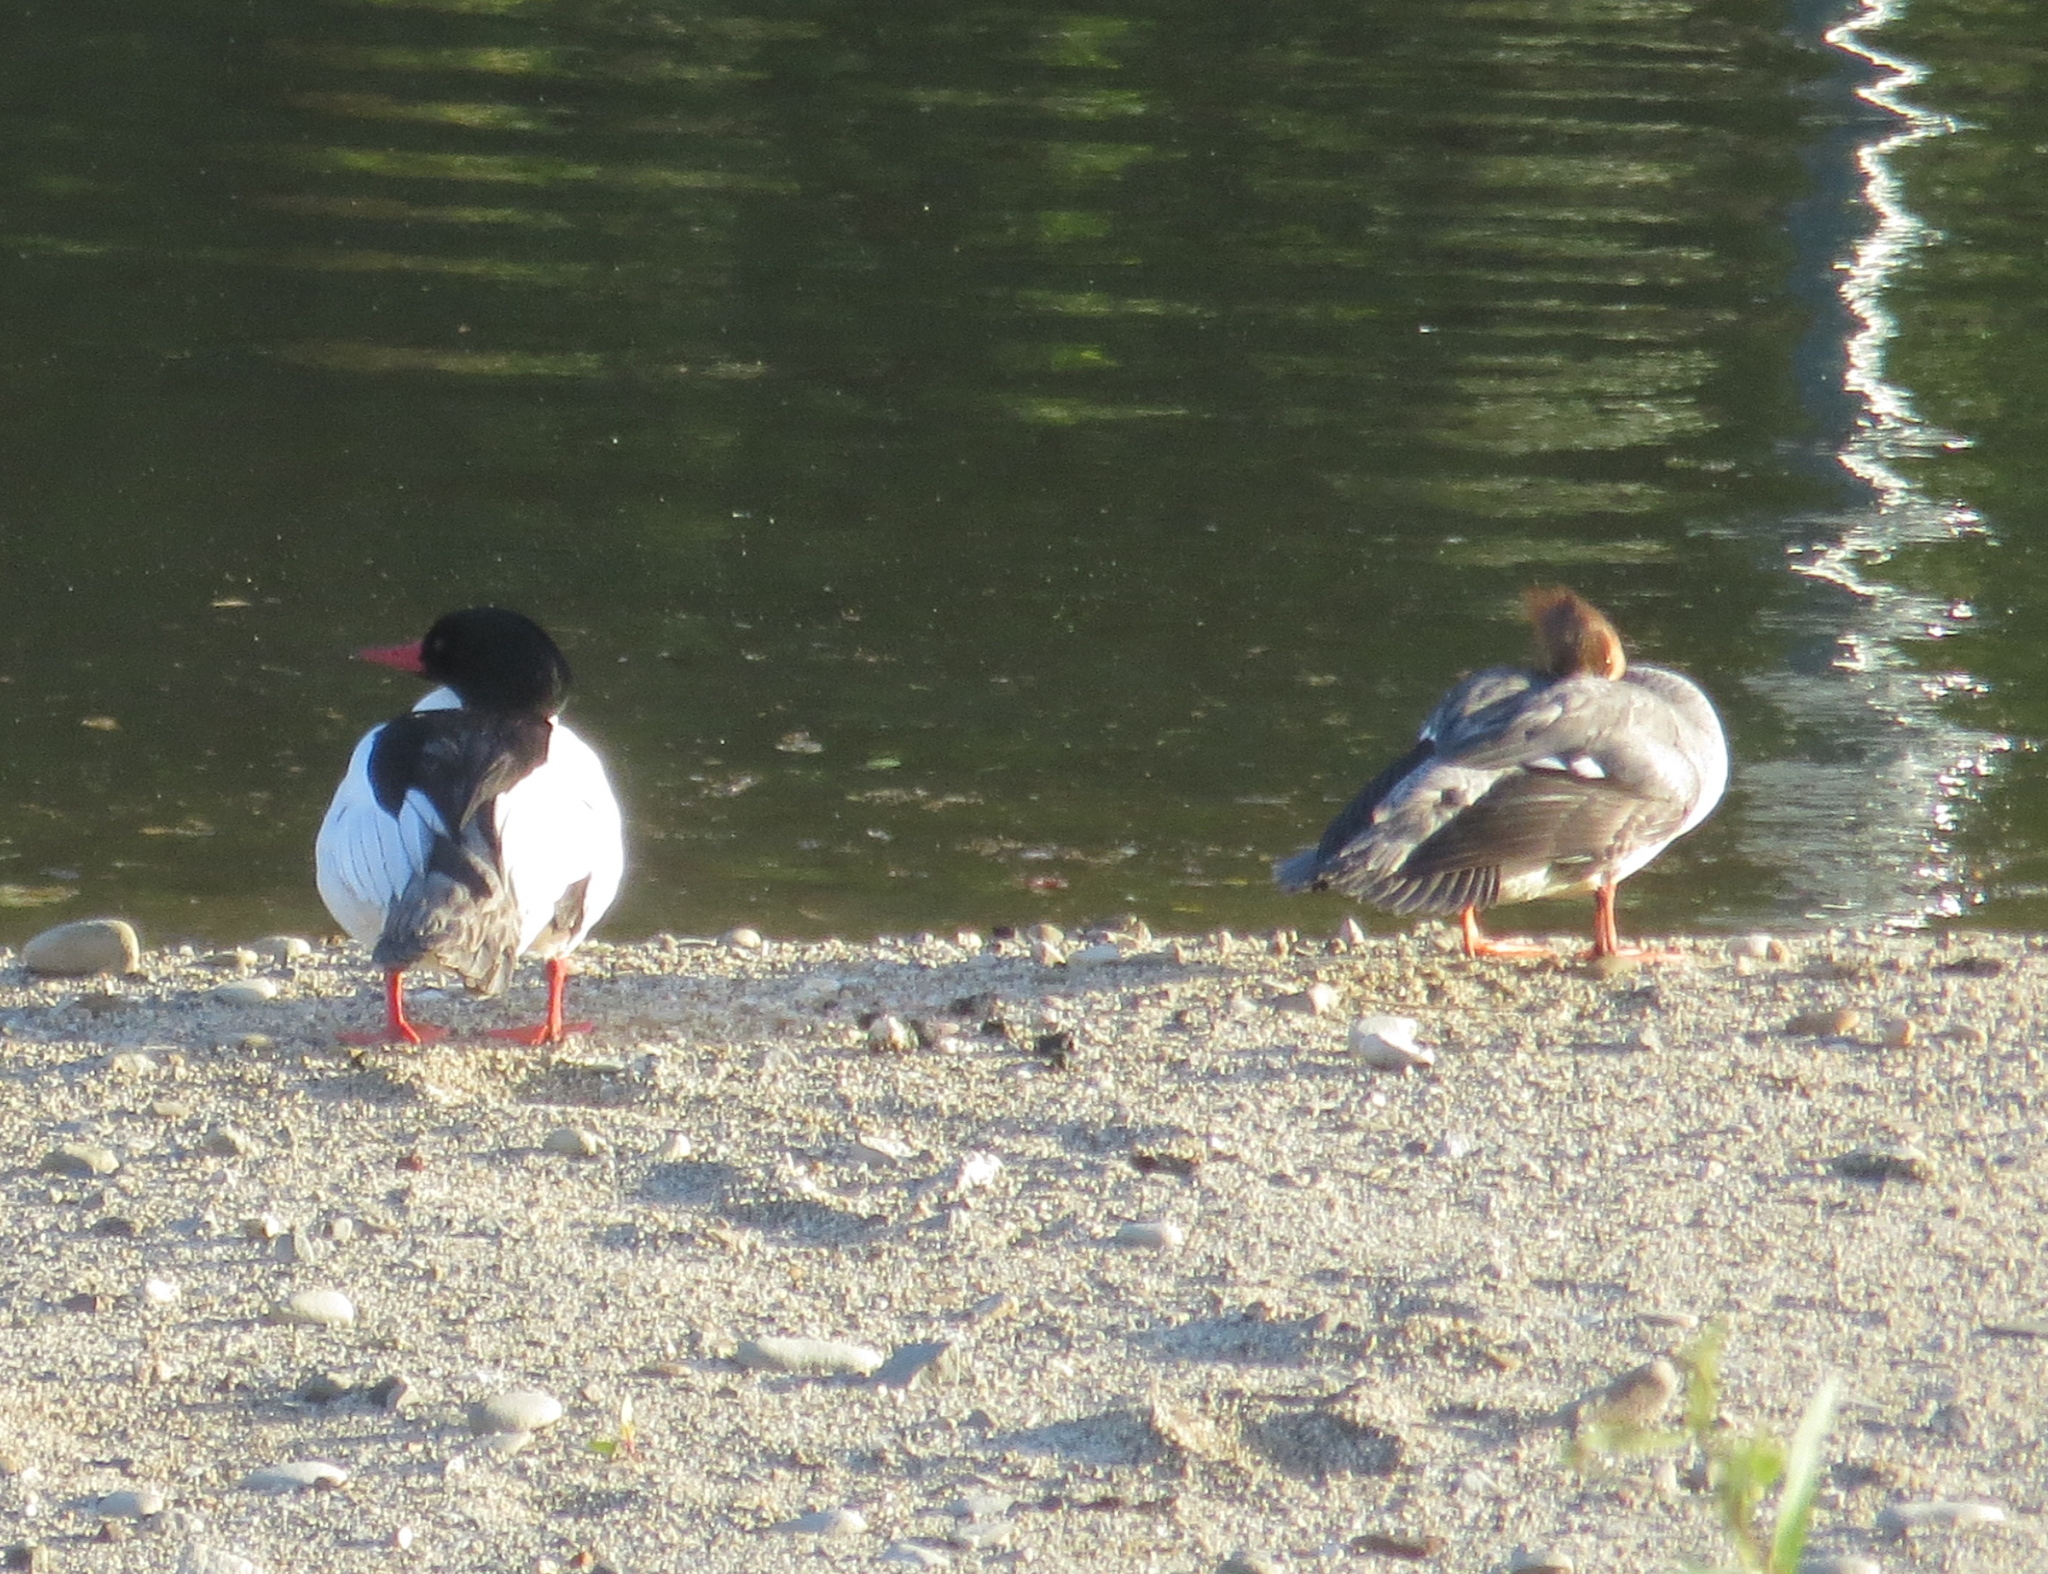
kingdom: Animalia
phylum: Chordata
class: Aves
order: Anseriformes
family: Anatidae
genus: Mergus
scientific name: Mergus merganser
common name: Common merganser
